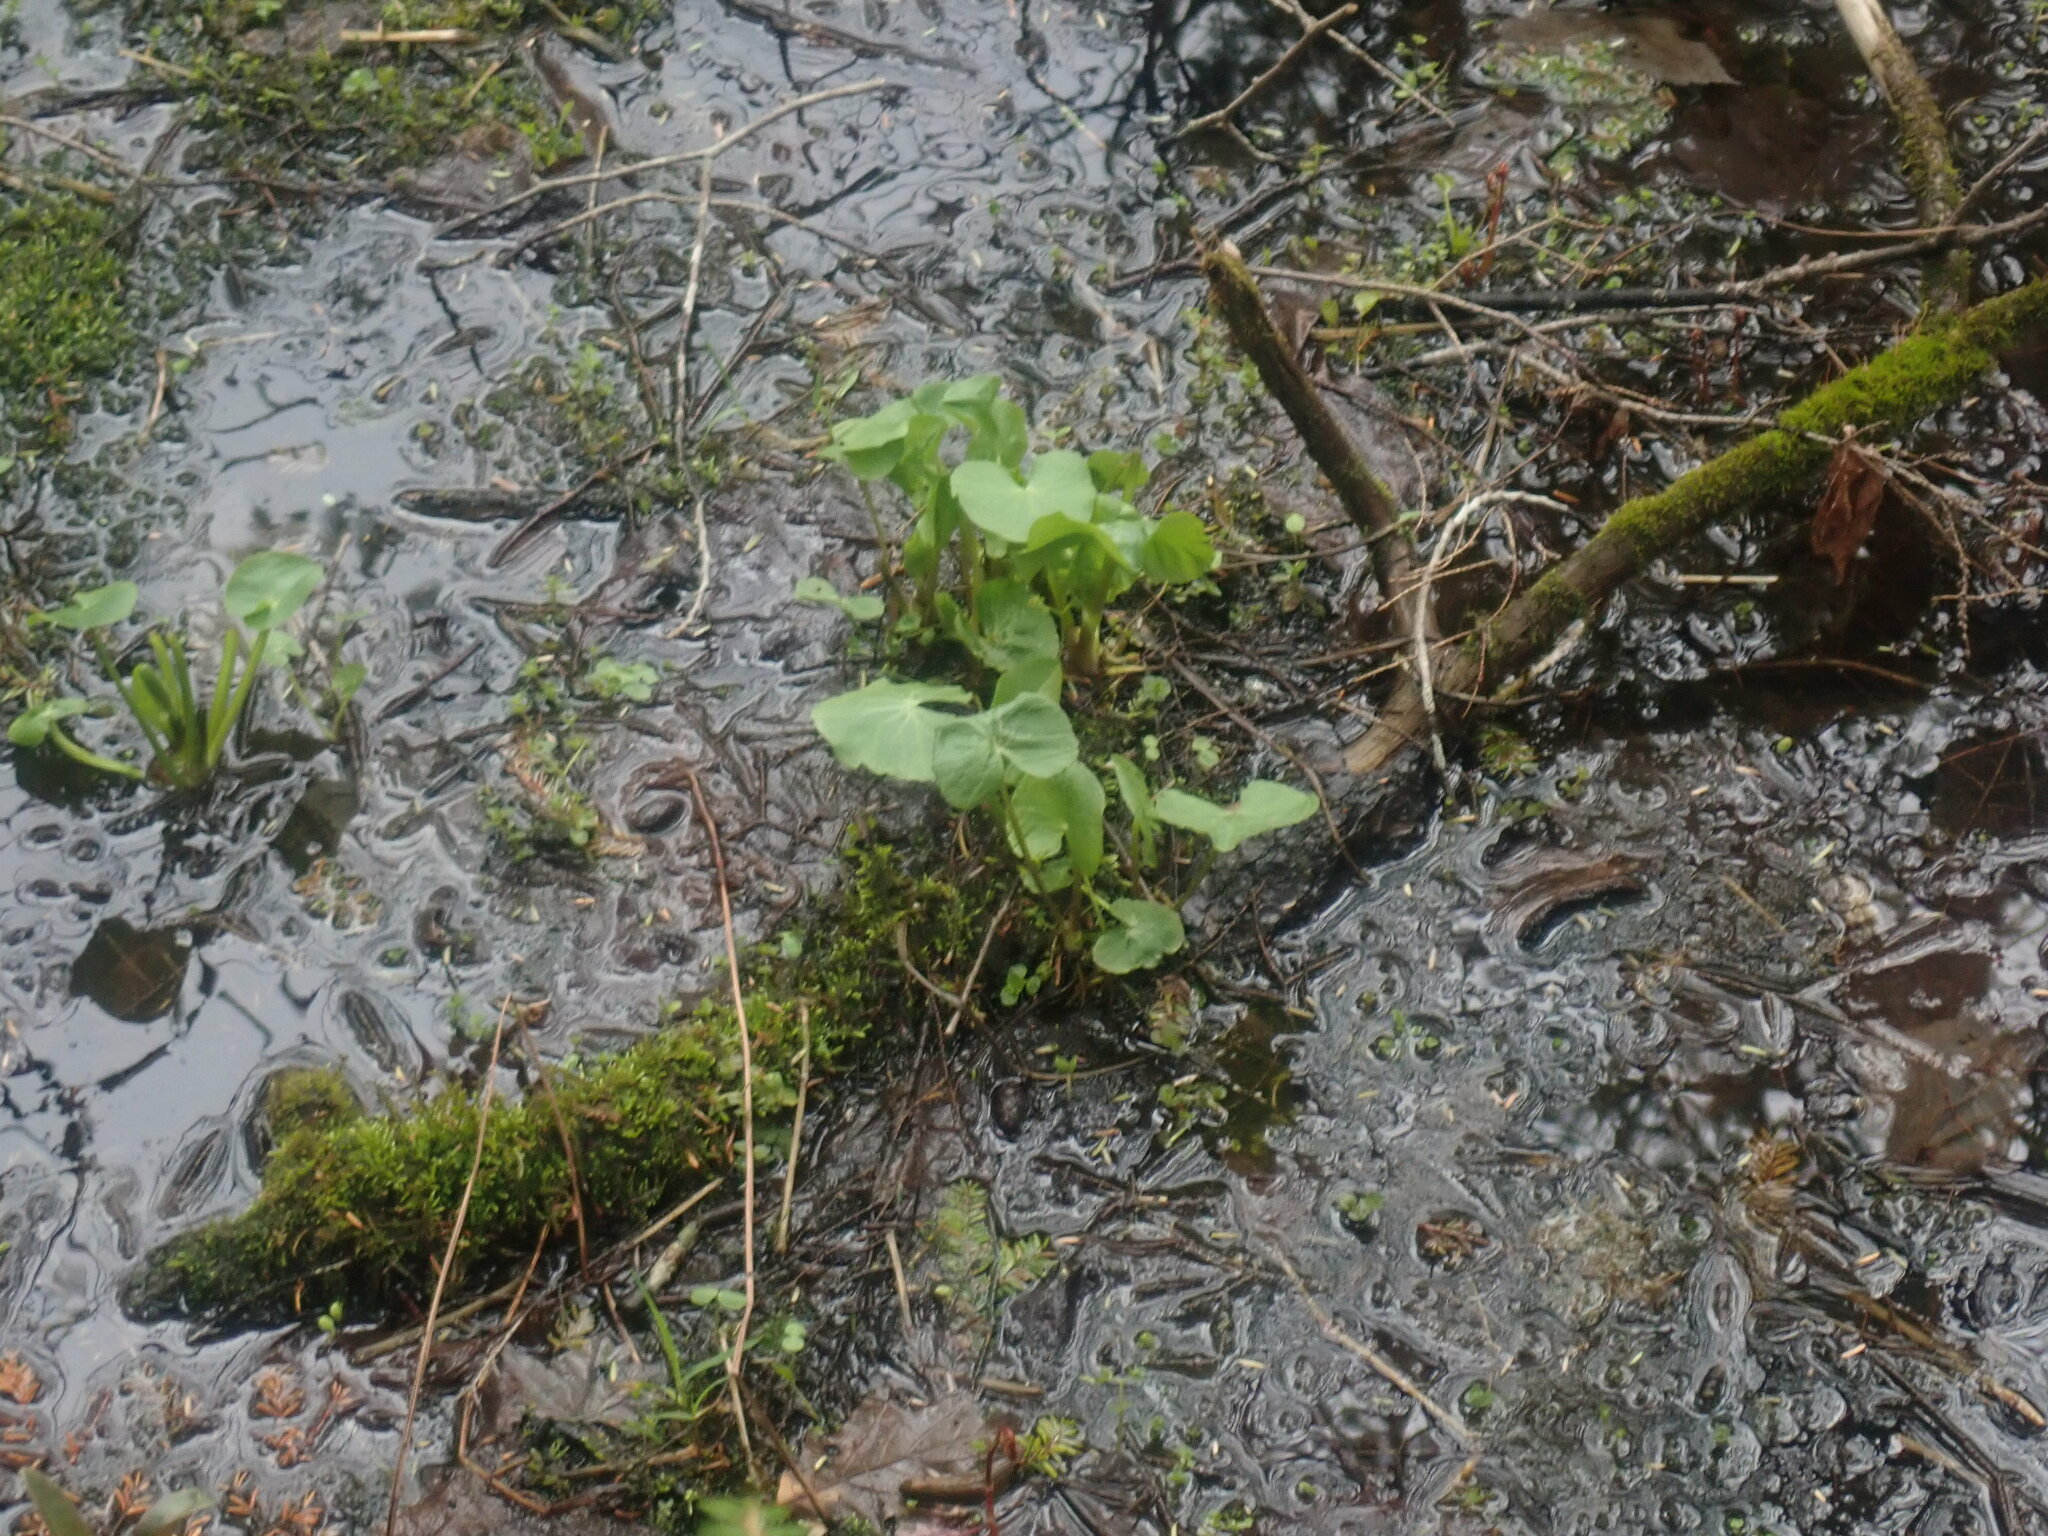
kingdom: Plantae
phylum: Tracheophyta
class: Magnoliopsida
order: Ranunculales
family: Ranunculaceae
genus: Caltha
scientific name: Caltha palustris
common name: Marsh marigold
